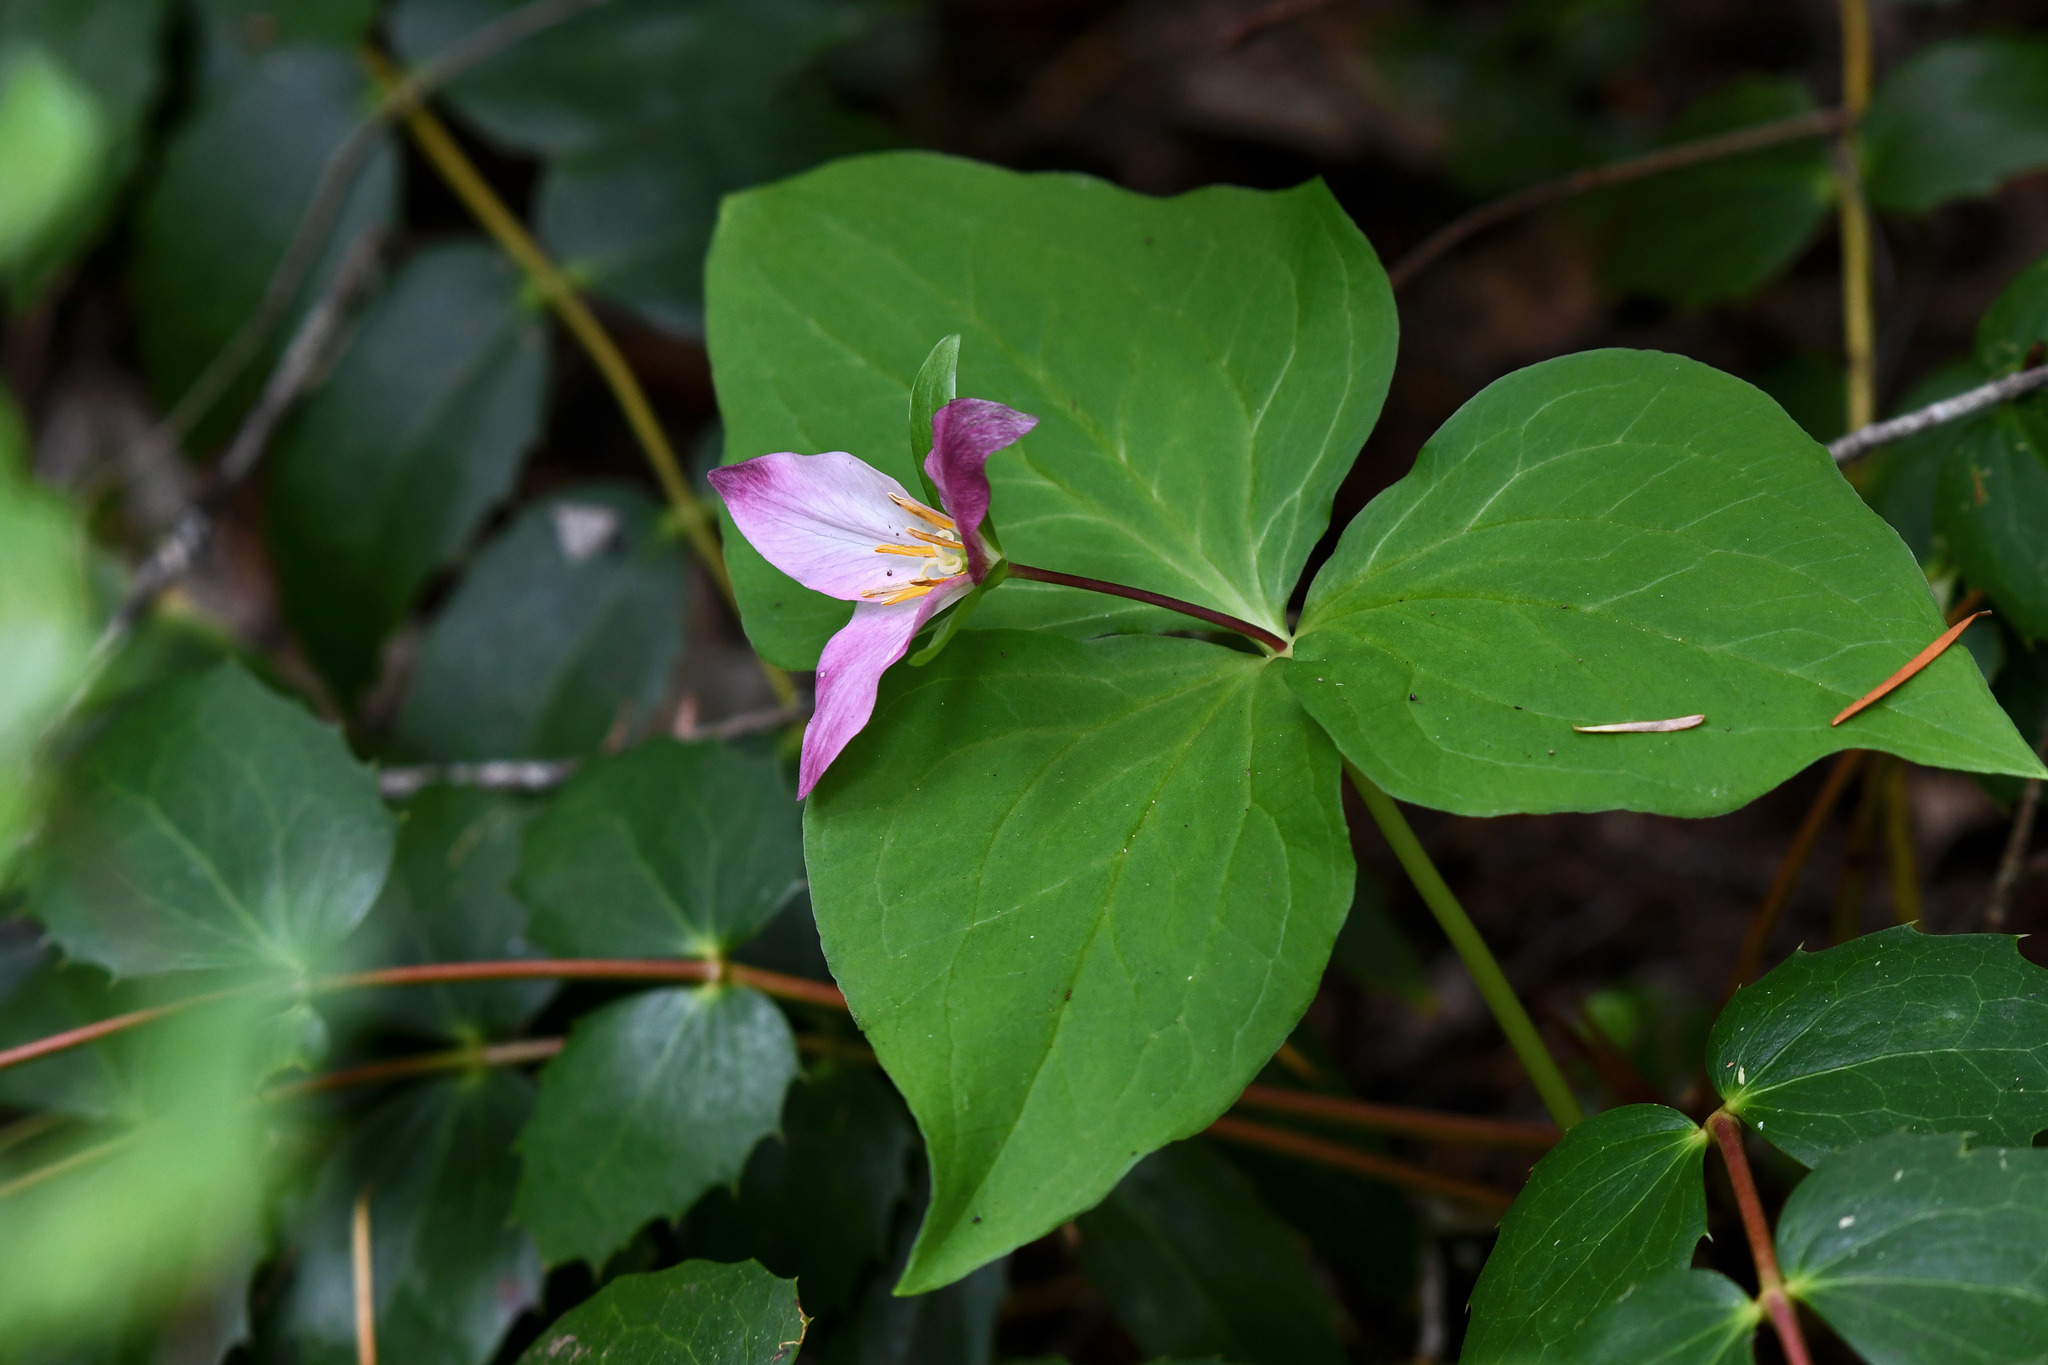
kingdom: Plantae
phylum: Tracheophyta
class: Liliopsida
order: Liliales
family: Melanthiaceae
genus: Trillium
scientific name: Trillium ovatum
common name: Pacific trillium
